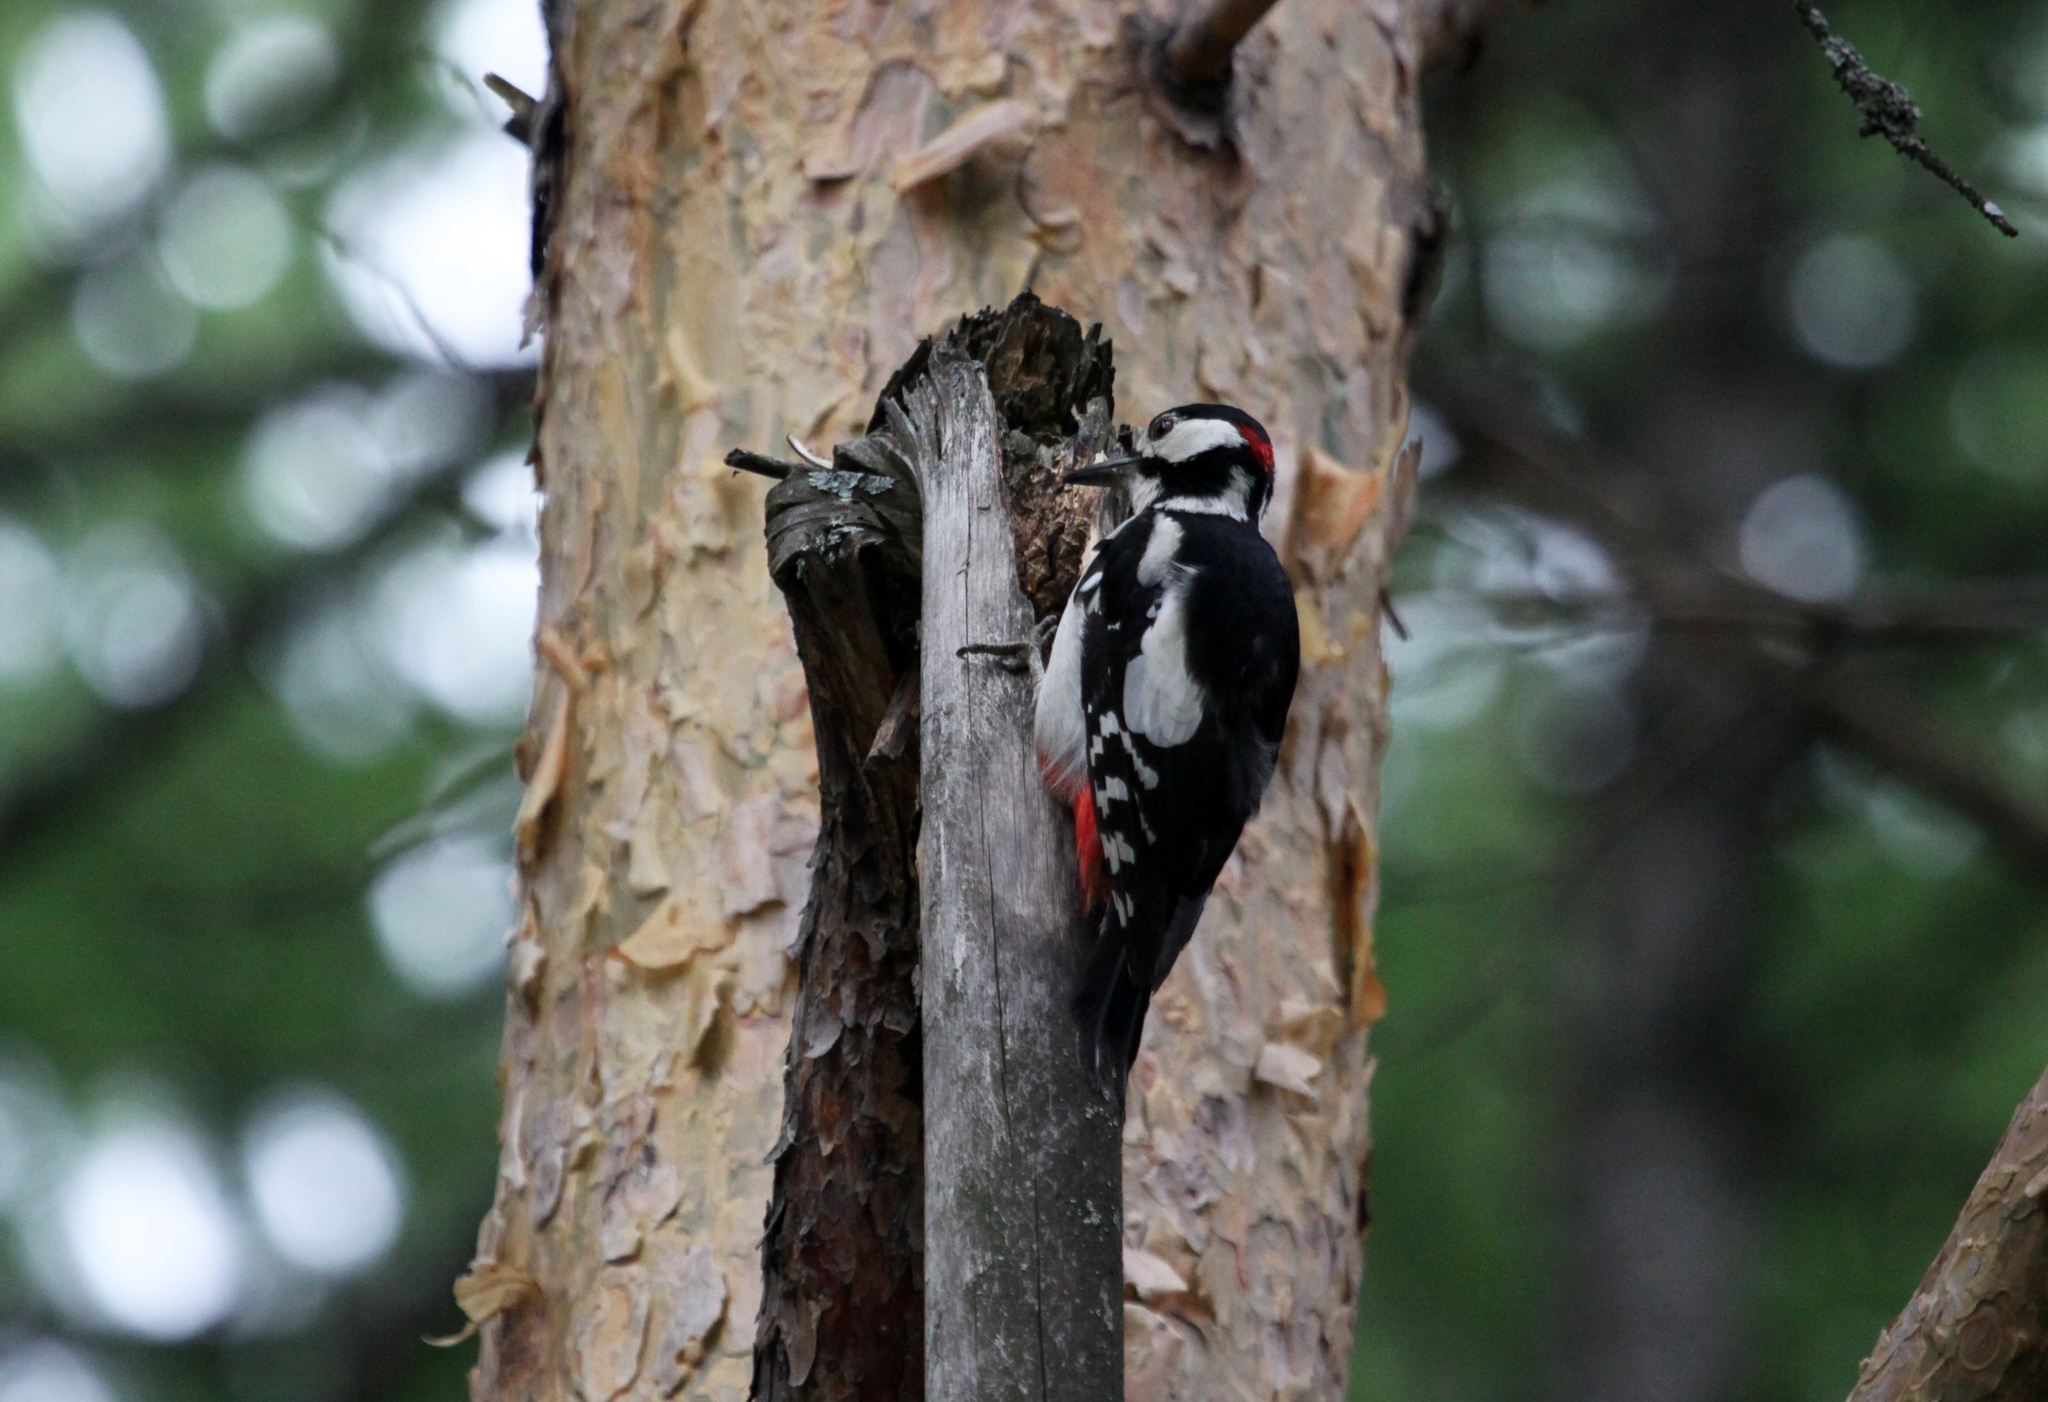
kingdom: Animalia
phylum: Chordata
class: Aves
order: Piciformes
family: Picidae
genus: Dendrocopos
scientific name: Dendrocopos major
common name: Great spotted woodpecker
